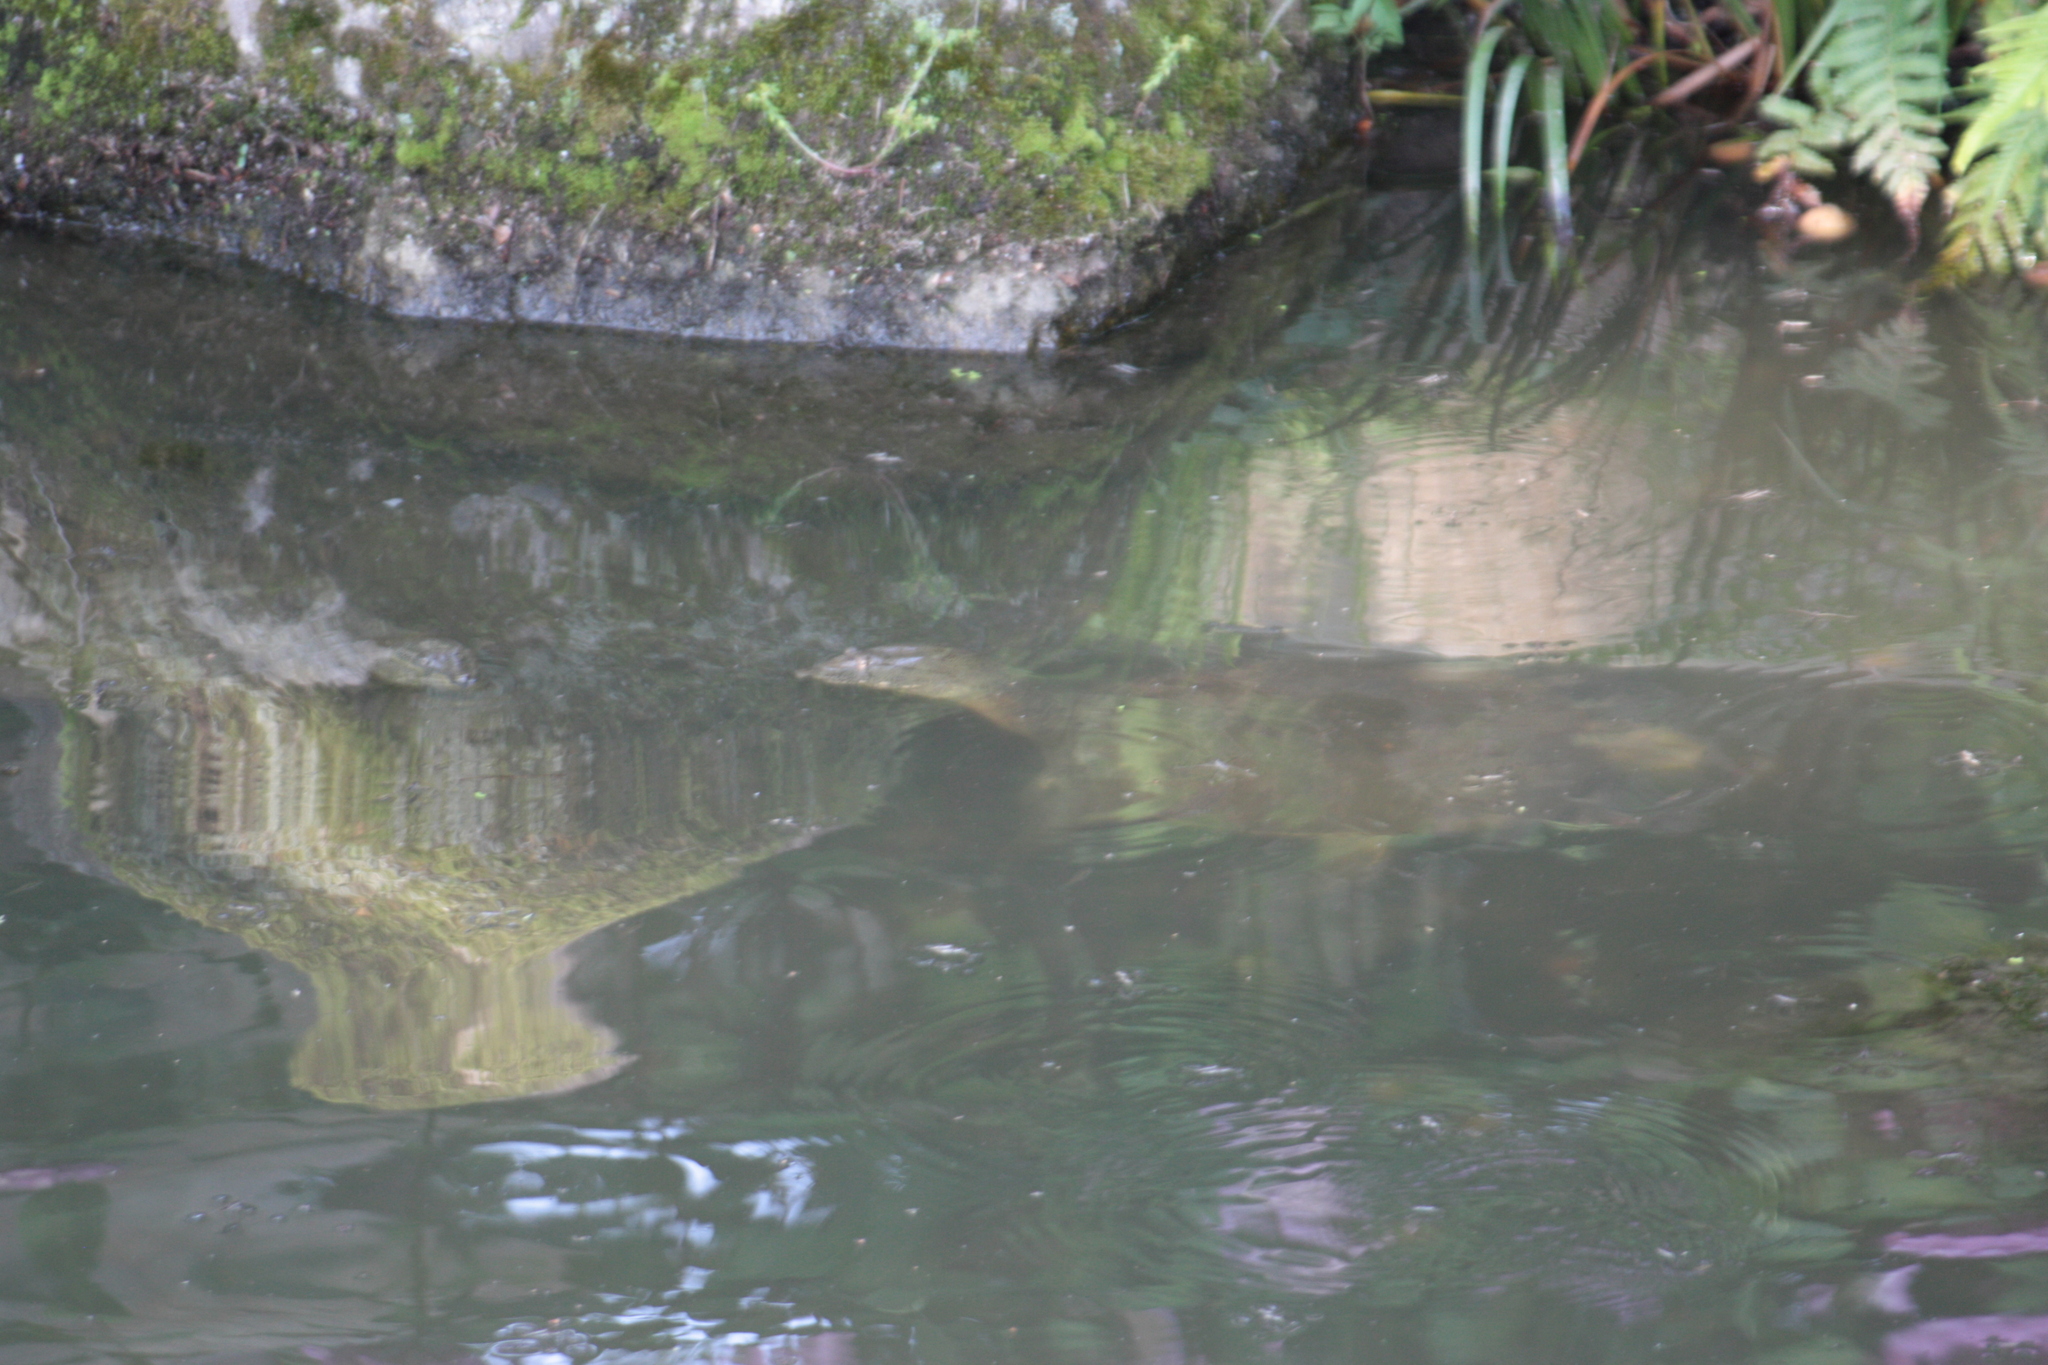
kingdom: Animalia
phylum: Chordata
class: Testudines
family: Trionychidae
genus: Pelodiscus
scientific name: Pelodiscus sinensis
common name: Chinese softshell turtle
